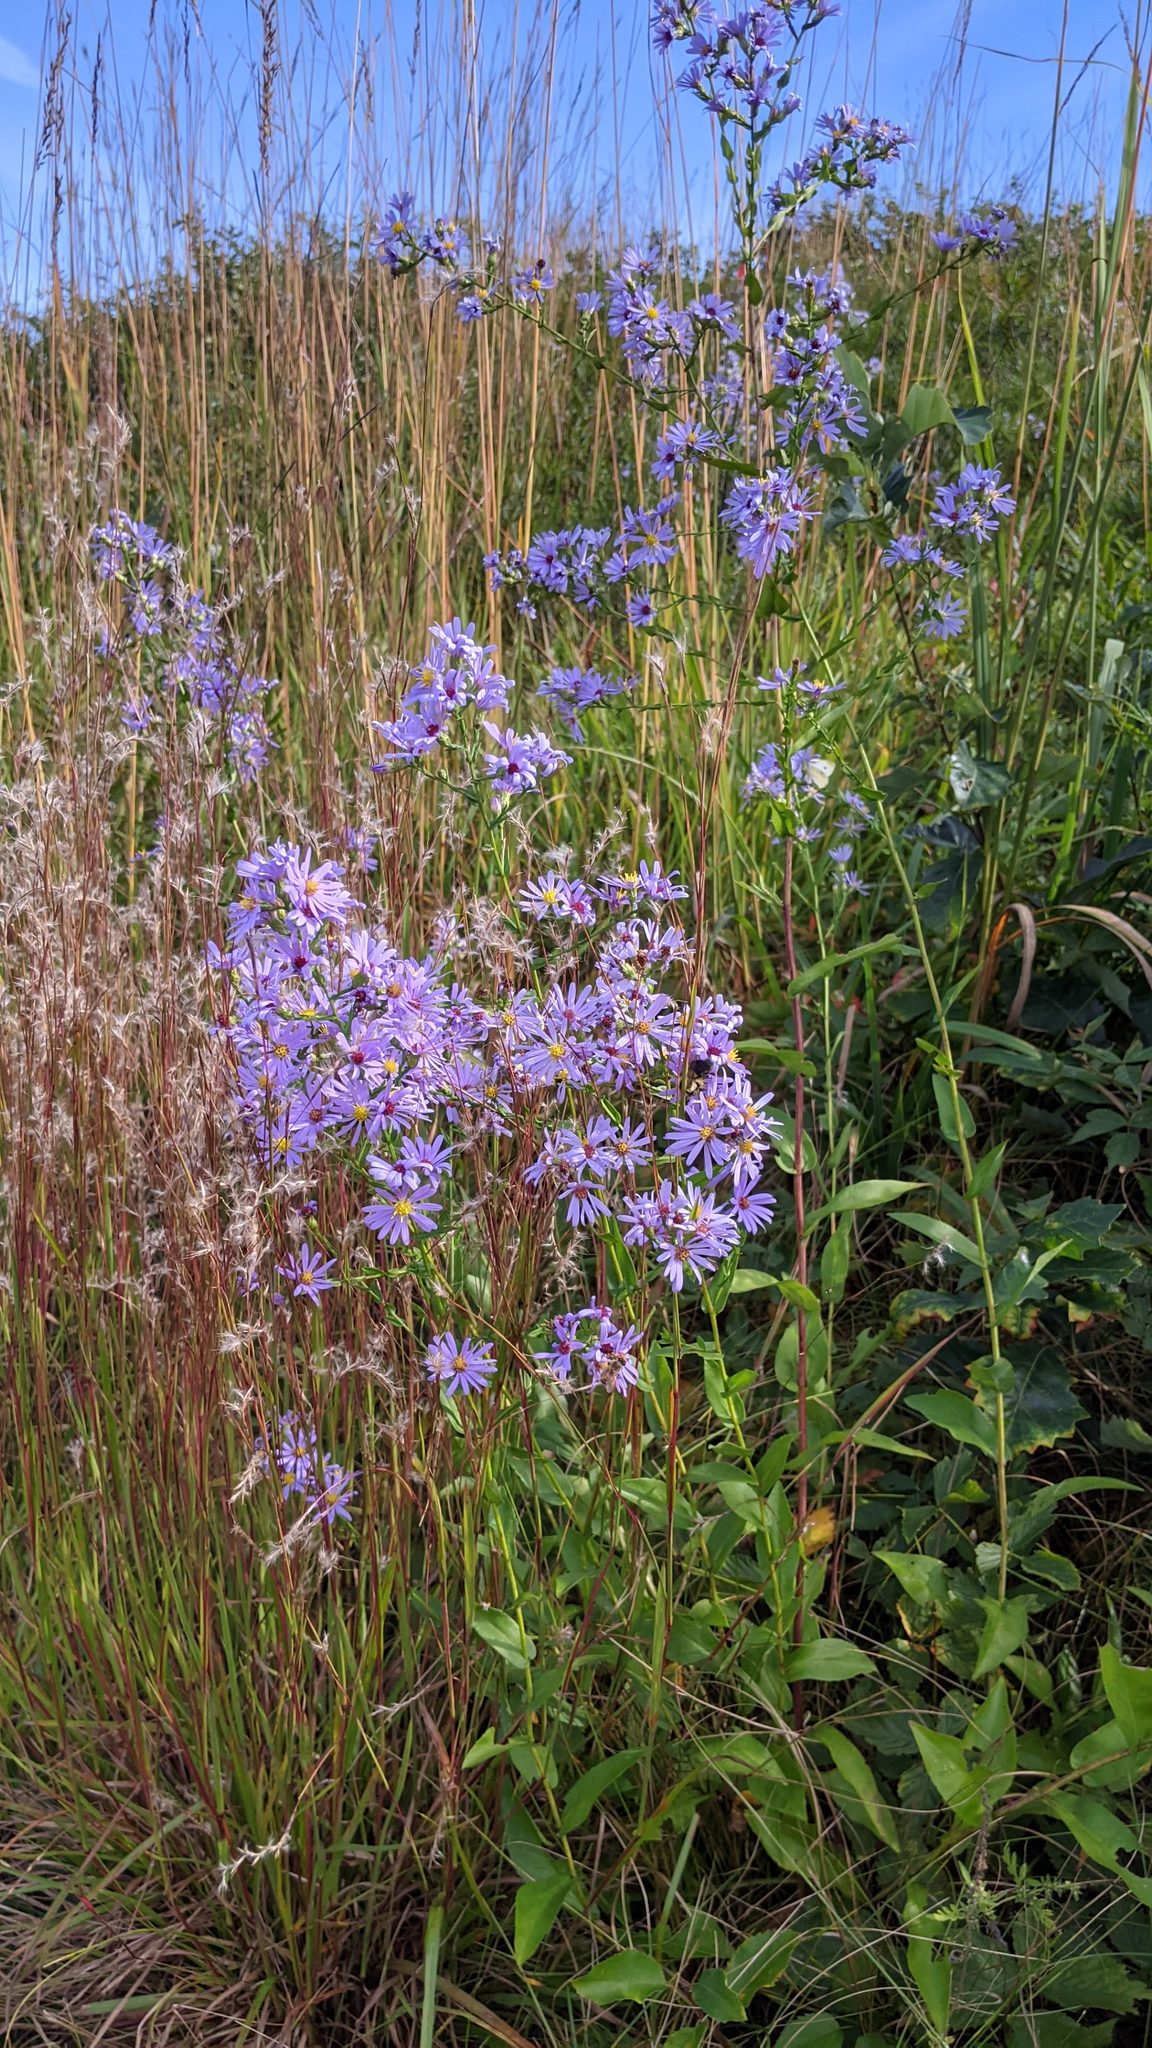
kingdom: Plantae
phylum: Tracheophyta
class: Magnoliopsida
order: Asterales
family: Asteraceae
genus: Symphyotrichum
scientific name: Symphyotrichum laeve
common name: Glaucous aster
